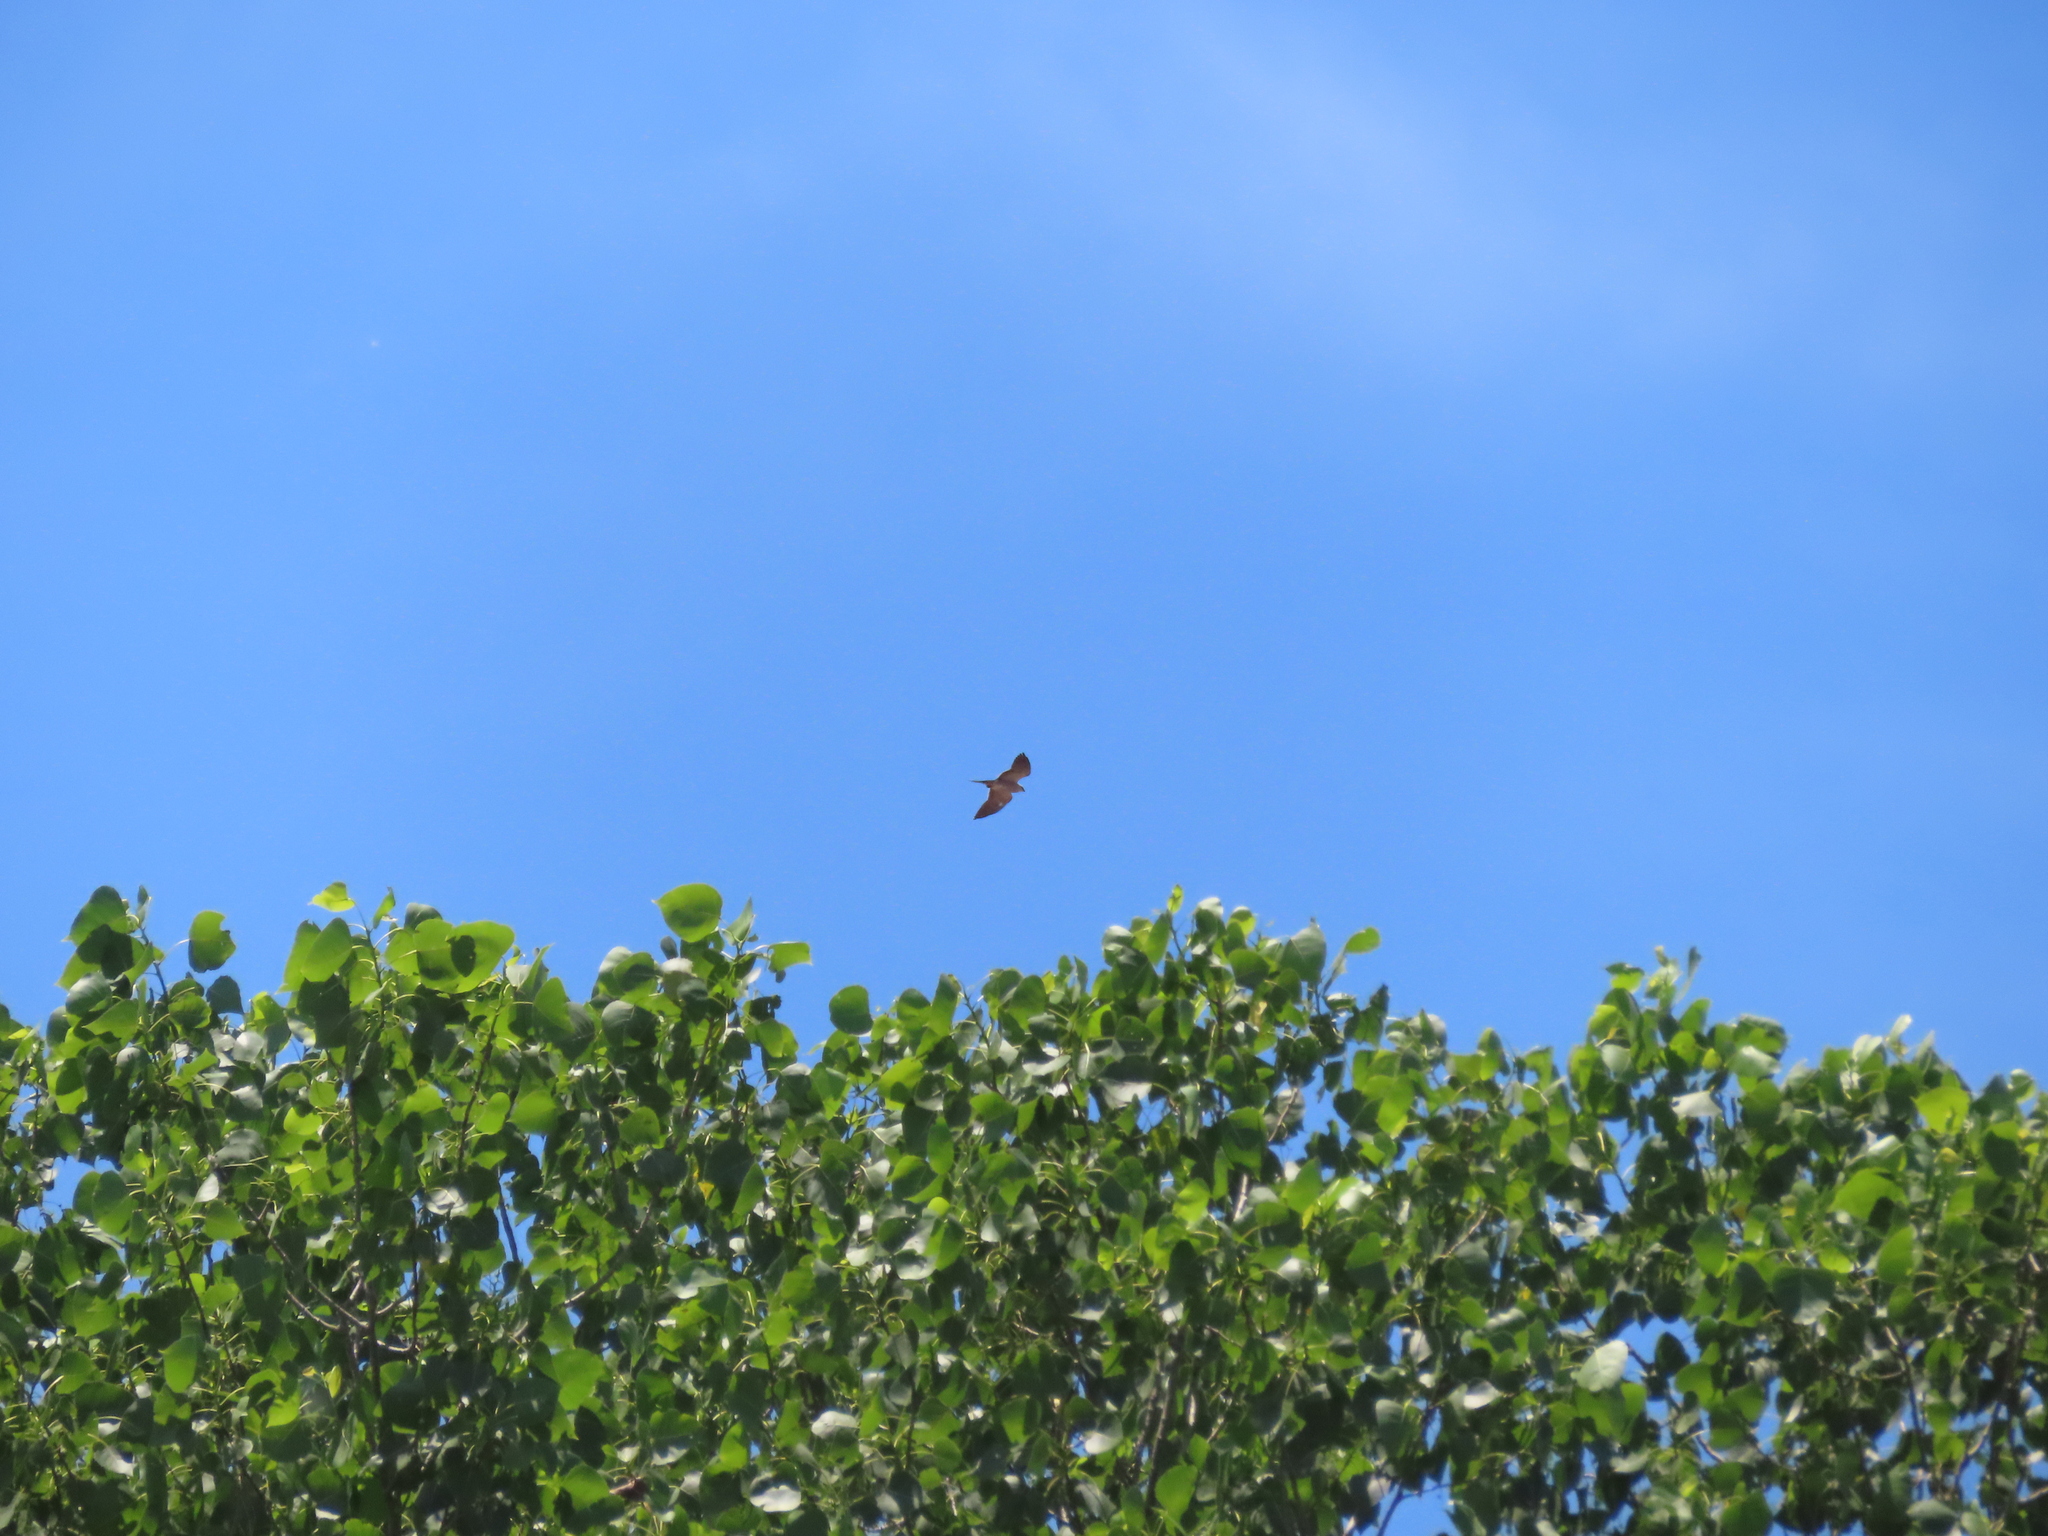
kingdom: Animalia
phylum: Chordata
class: Aves
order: Accipitriformes
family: Accipitridae
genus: Ictinia
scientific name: Ictinia mississippiensis
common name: Mississippi kite
